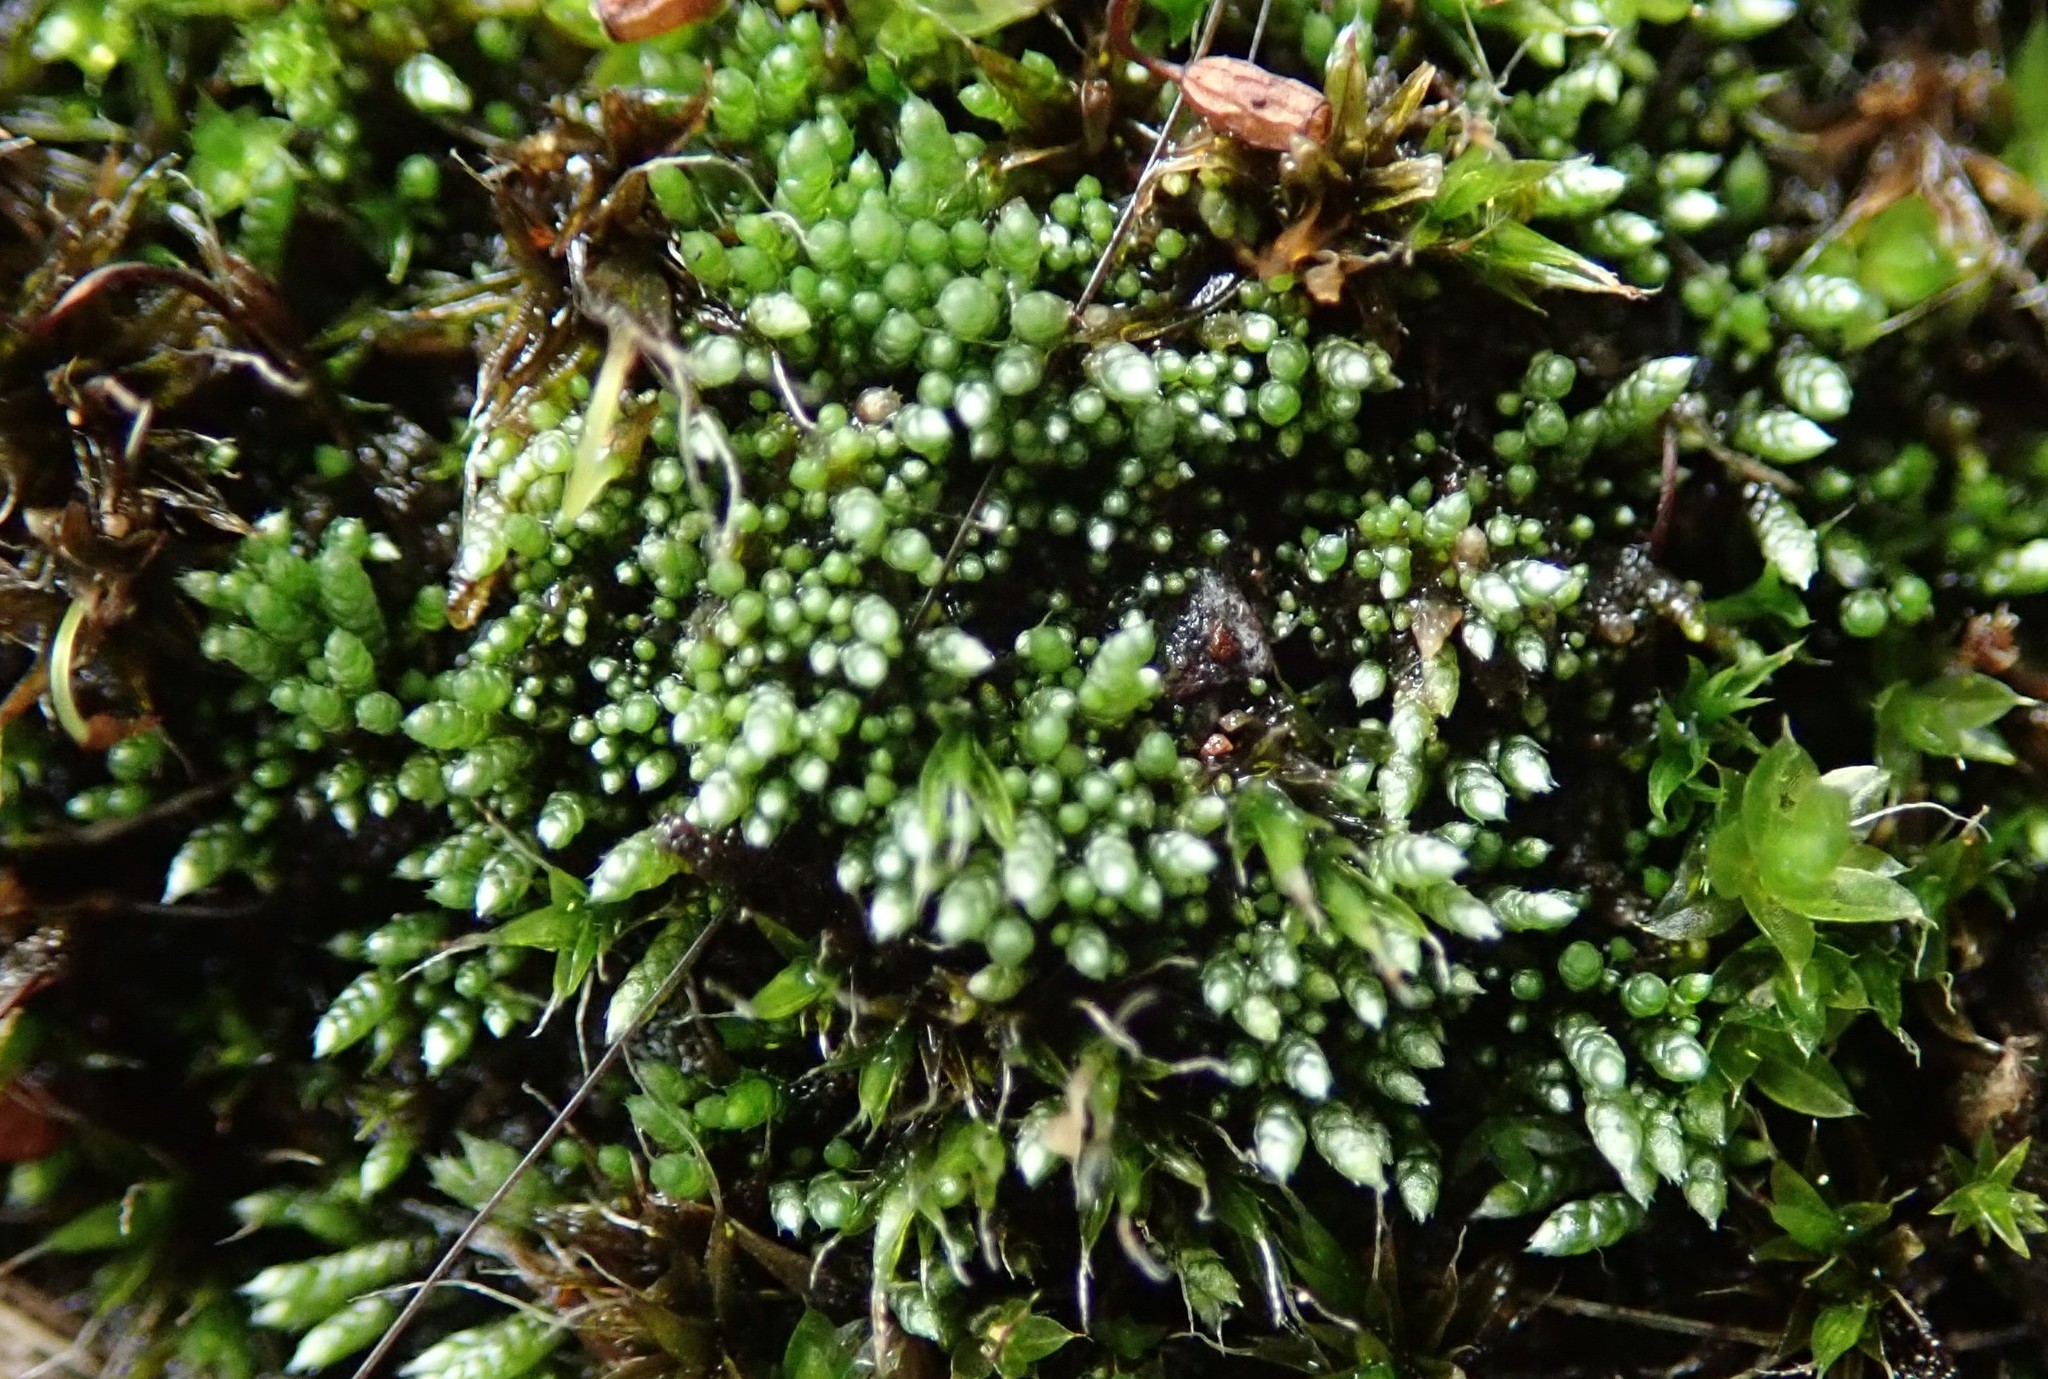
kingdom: Plantae
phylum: Bryophyta
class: Bryopsida
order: Bryales
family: Bryaceae
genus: Bryum
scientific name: Bryum argenteum
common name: Silver-moss
